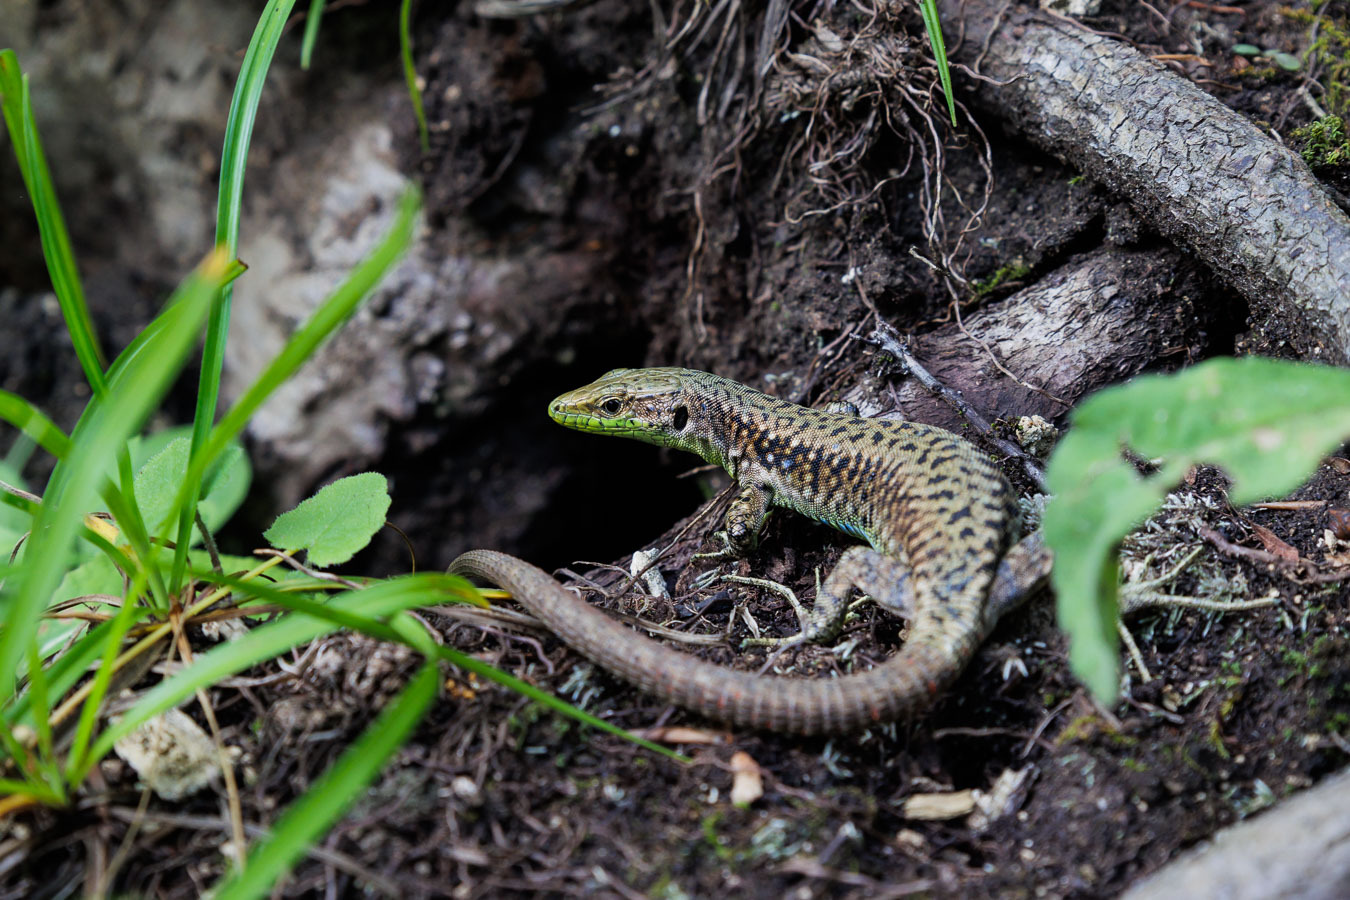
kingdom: Animalia
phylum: Chordata
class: Squamata
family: Lacertidae
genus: Darevskia
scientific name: Darevskia brauneri
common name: Brauner's rock lizard
